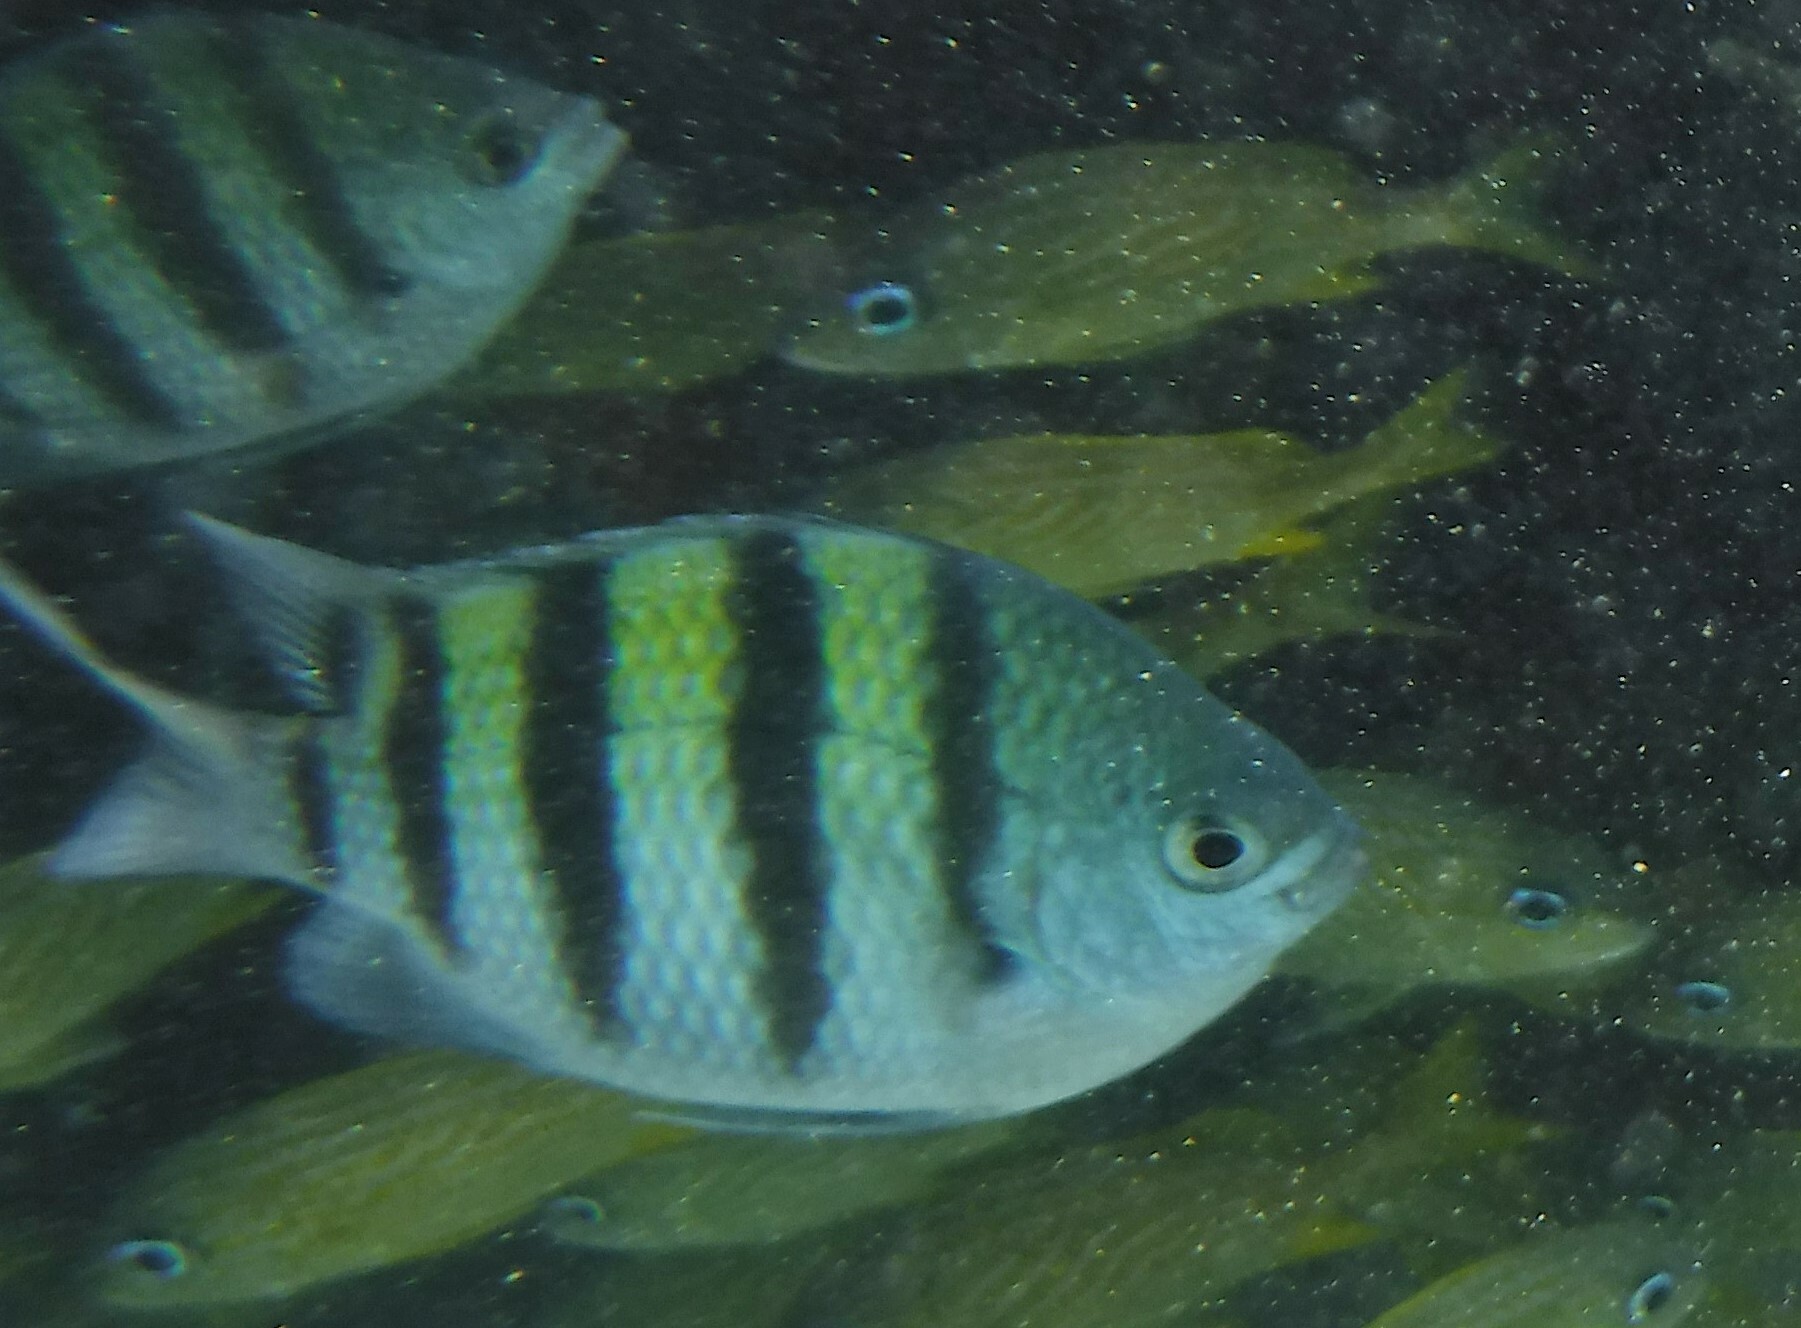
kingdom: Animalia
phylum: Chordata
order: Perciformes
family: Pomacentridae
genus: Abudefduf
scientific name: Abudefduf saxatilis
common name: Sergeant major
